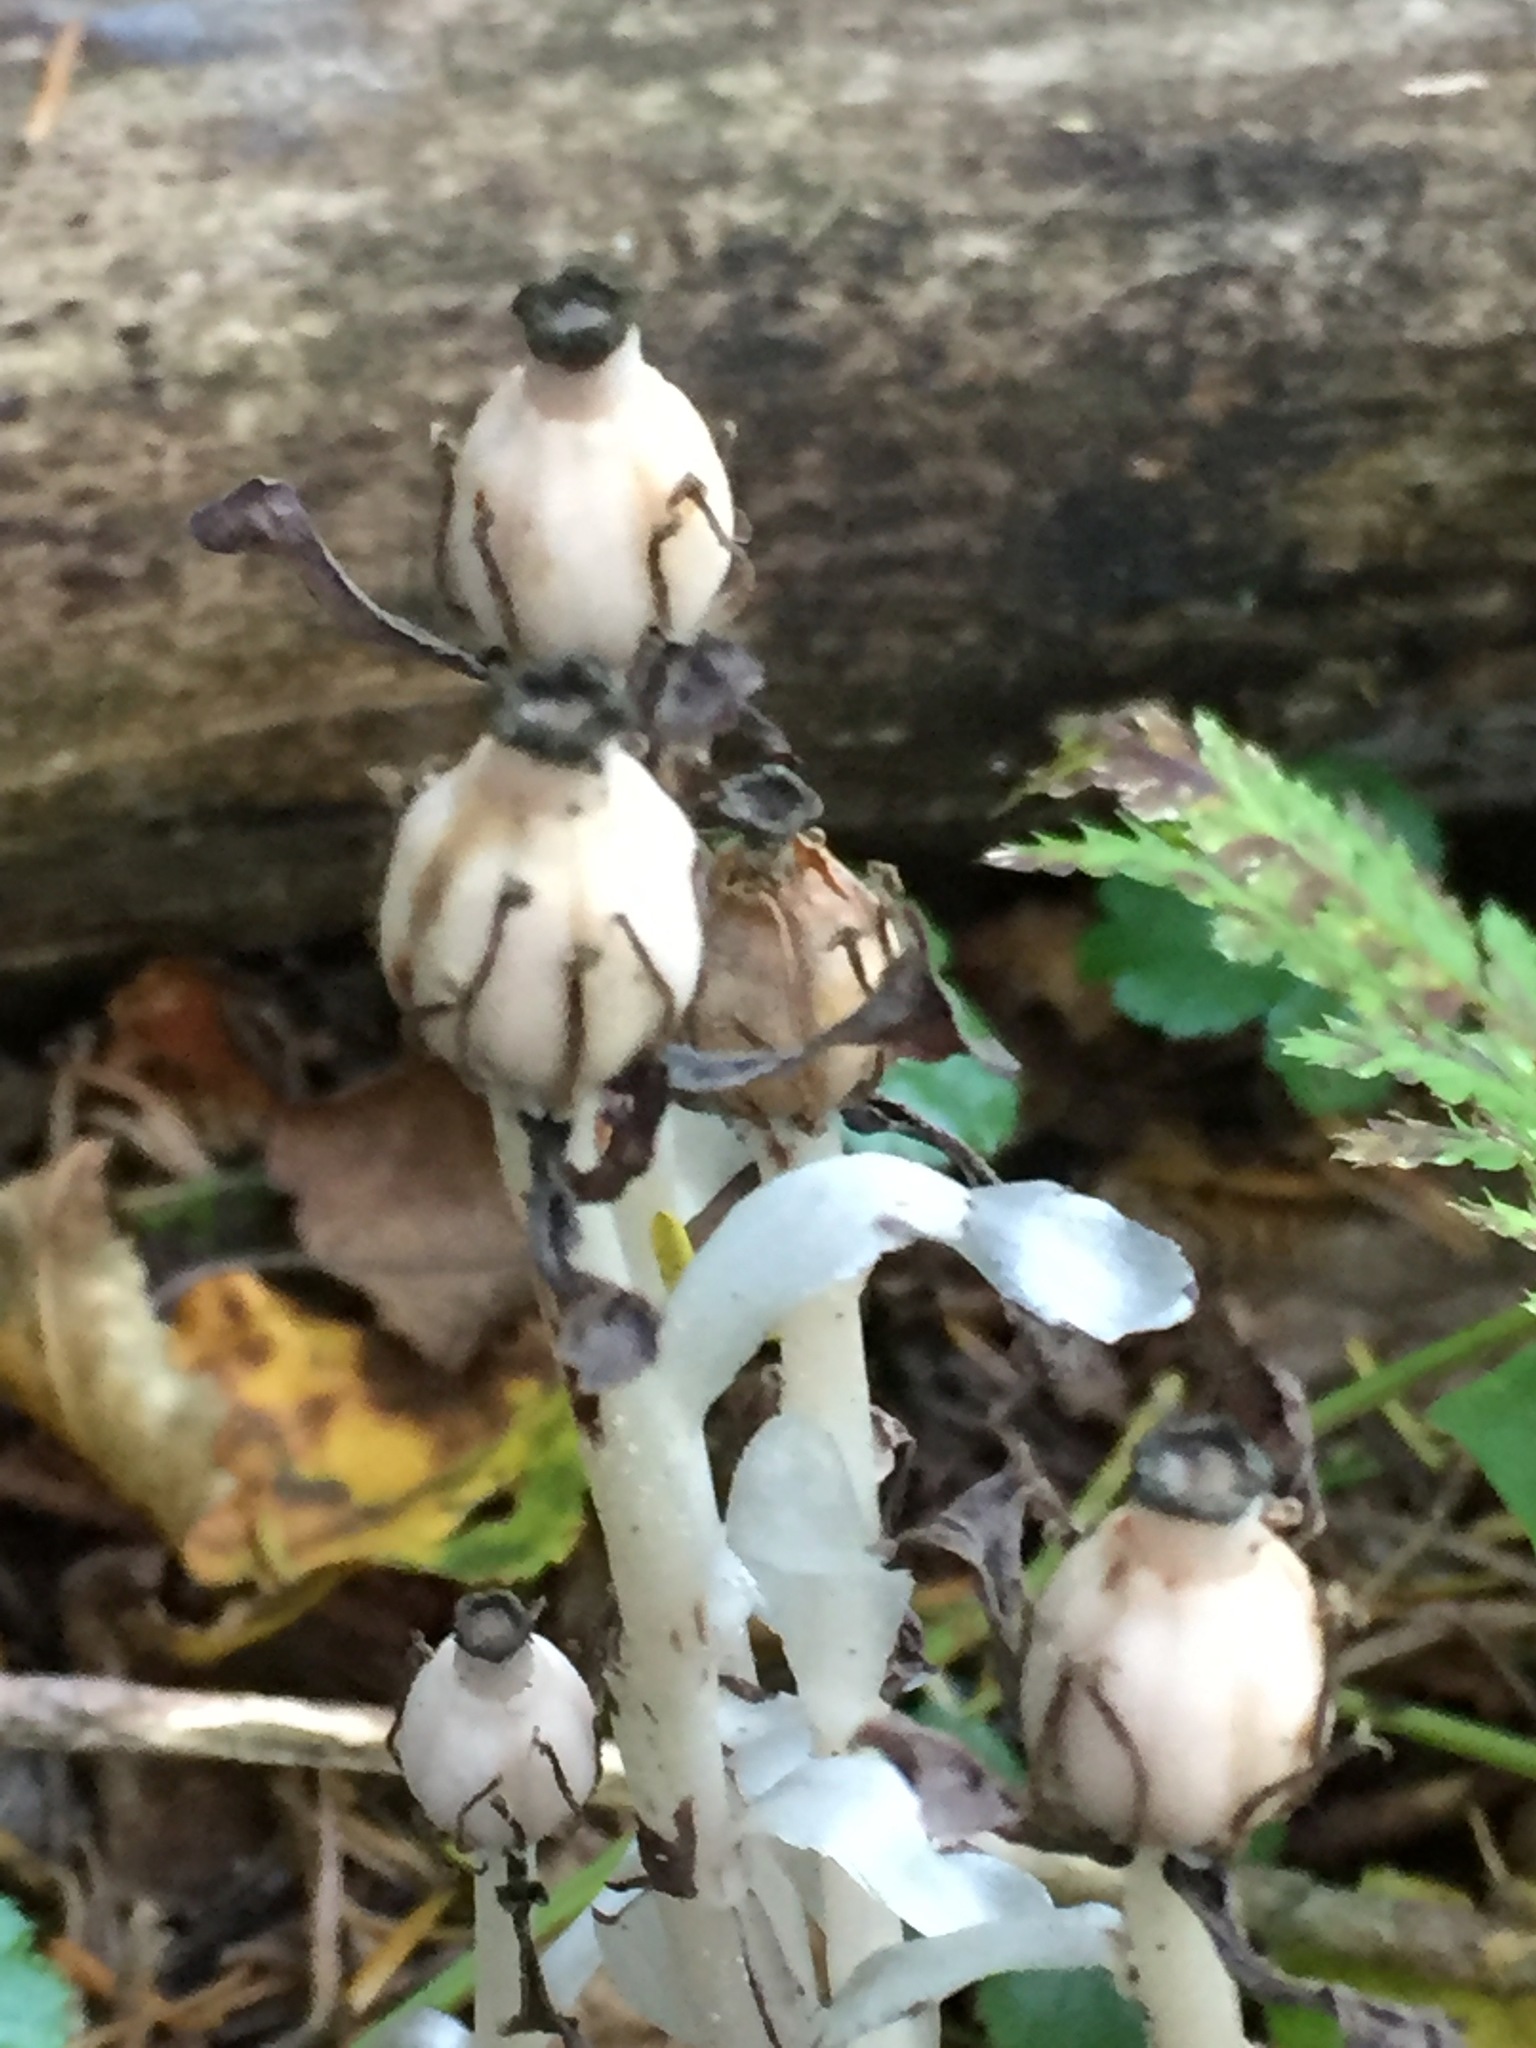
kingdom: Plantae
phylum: Tracheophyta
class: Magnoliopsida
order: Ericales
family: Ericaceae
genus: Monotropa
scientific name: Monotropa uniflora
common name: Convulsion root
